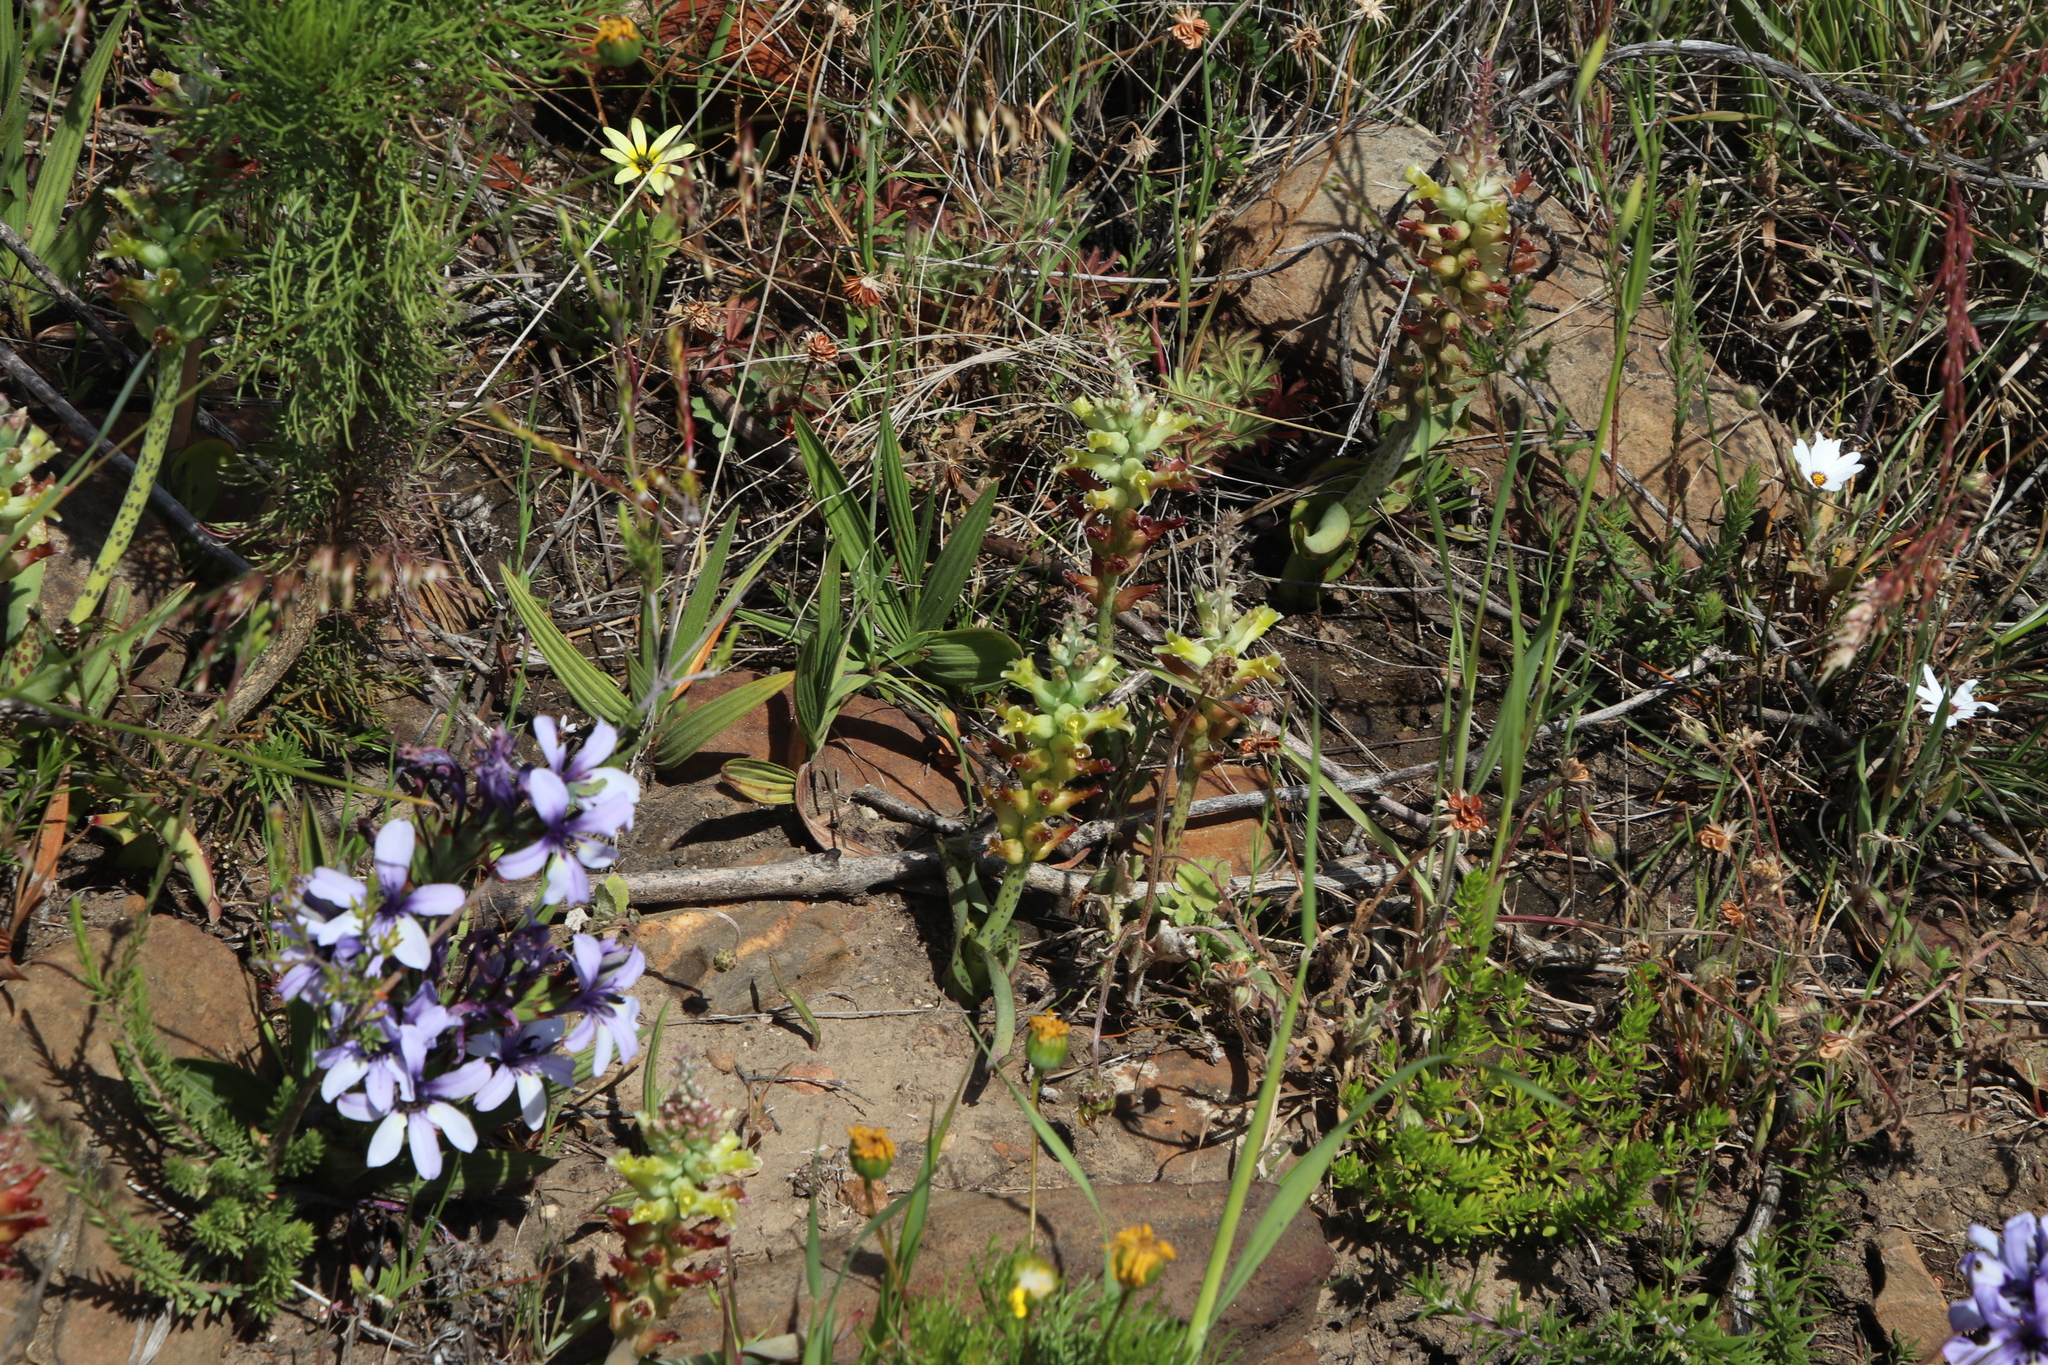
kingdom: Plantae
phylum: Tracheophyta
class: Liliopsida
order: Asparagales
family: Asparagaceae
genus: Lachenalia
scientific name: Lachenalia orchioides
